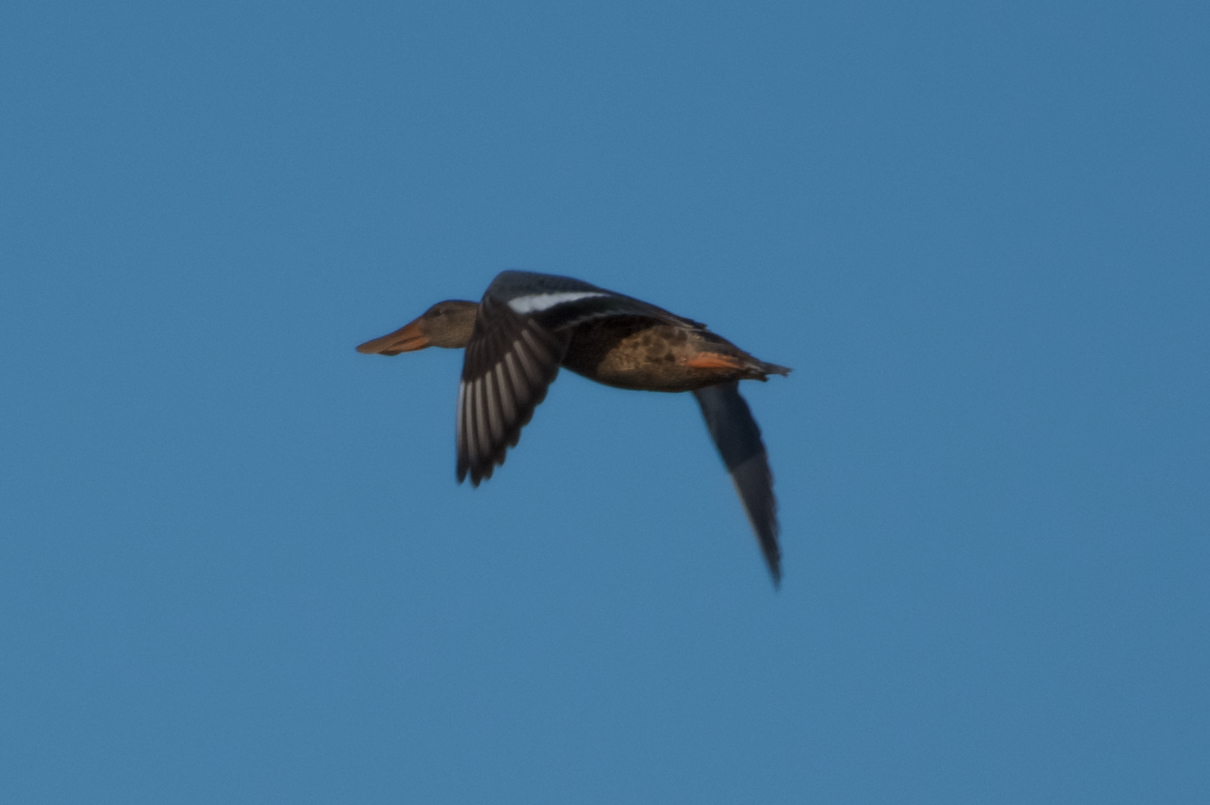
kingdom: Animalia
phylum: Chordata
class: Aves
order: Anseriformes
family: Anatidae
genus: Spatula
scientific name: Spatula clypeata
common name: Northern shoveler
